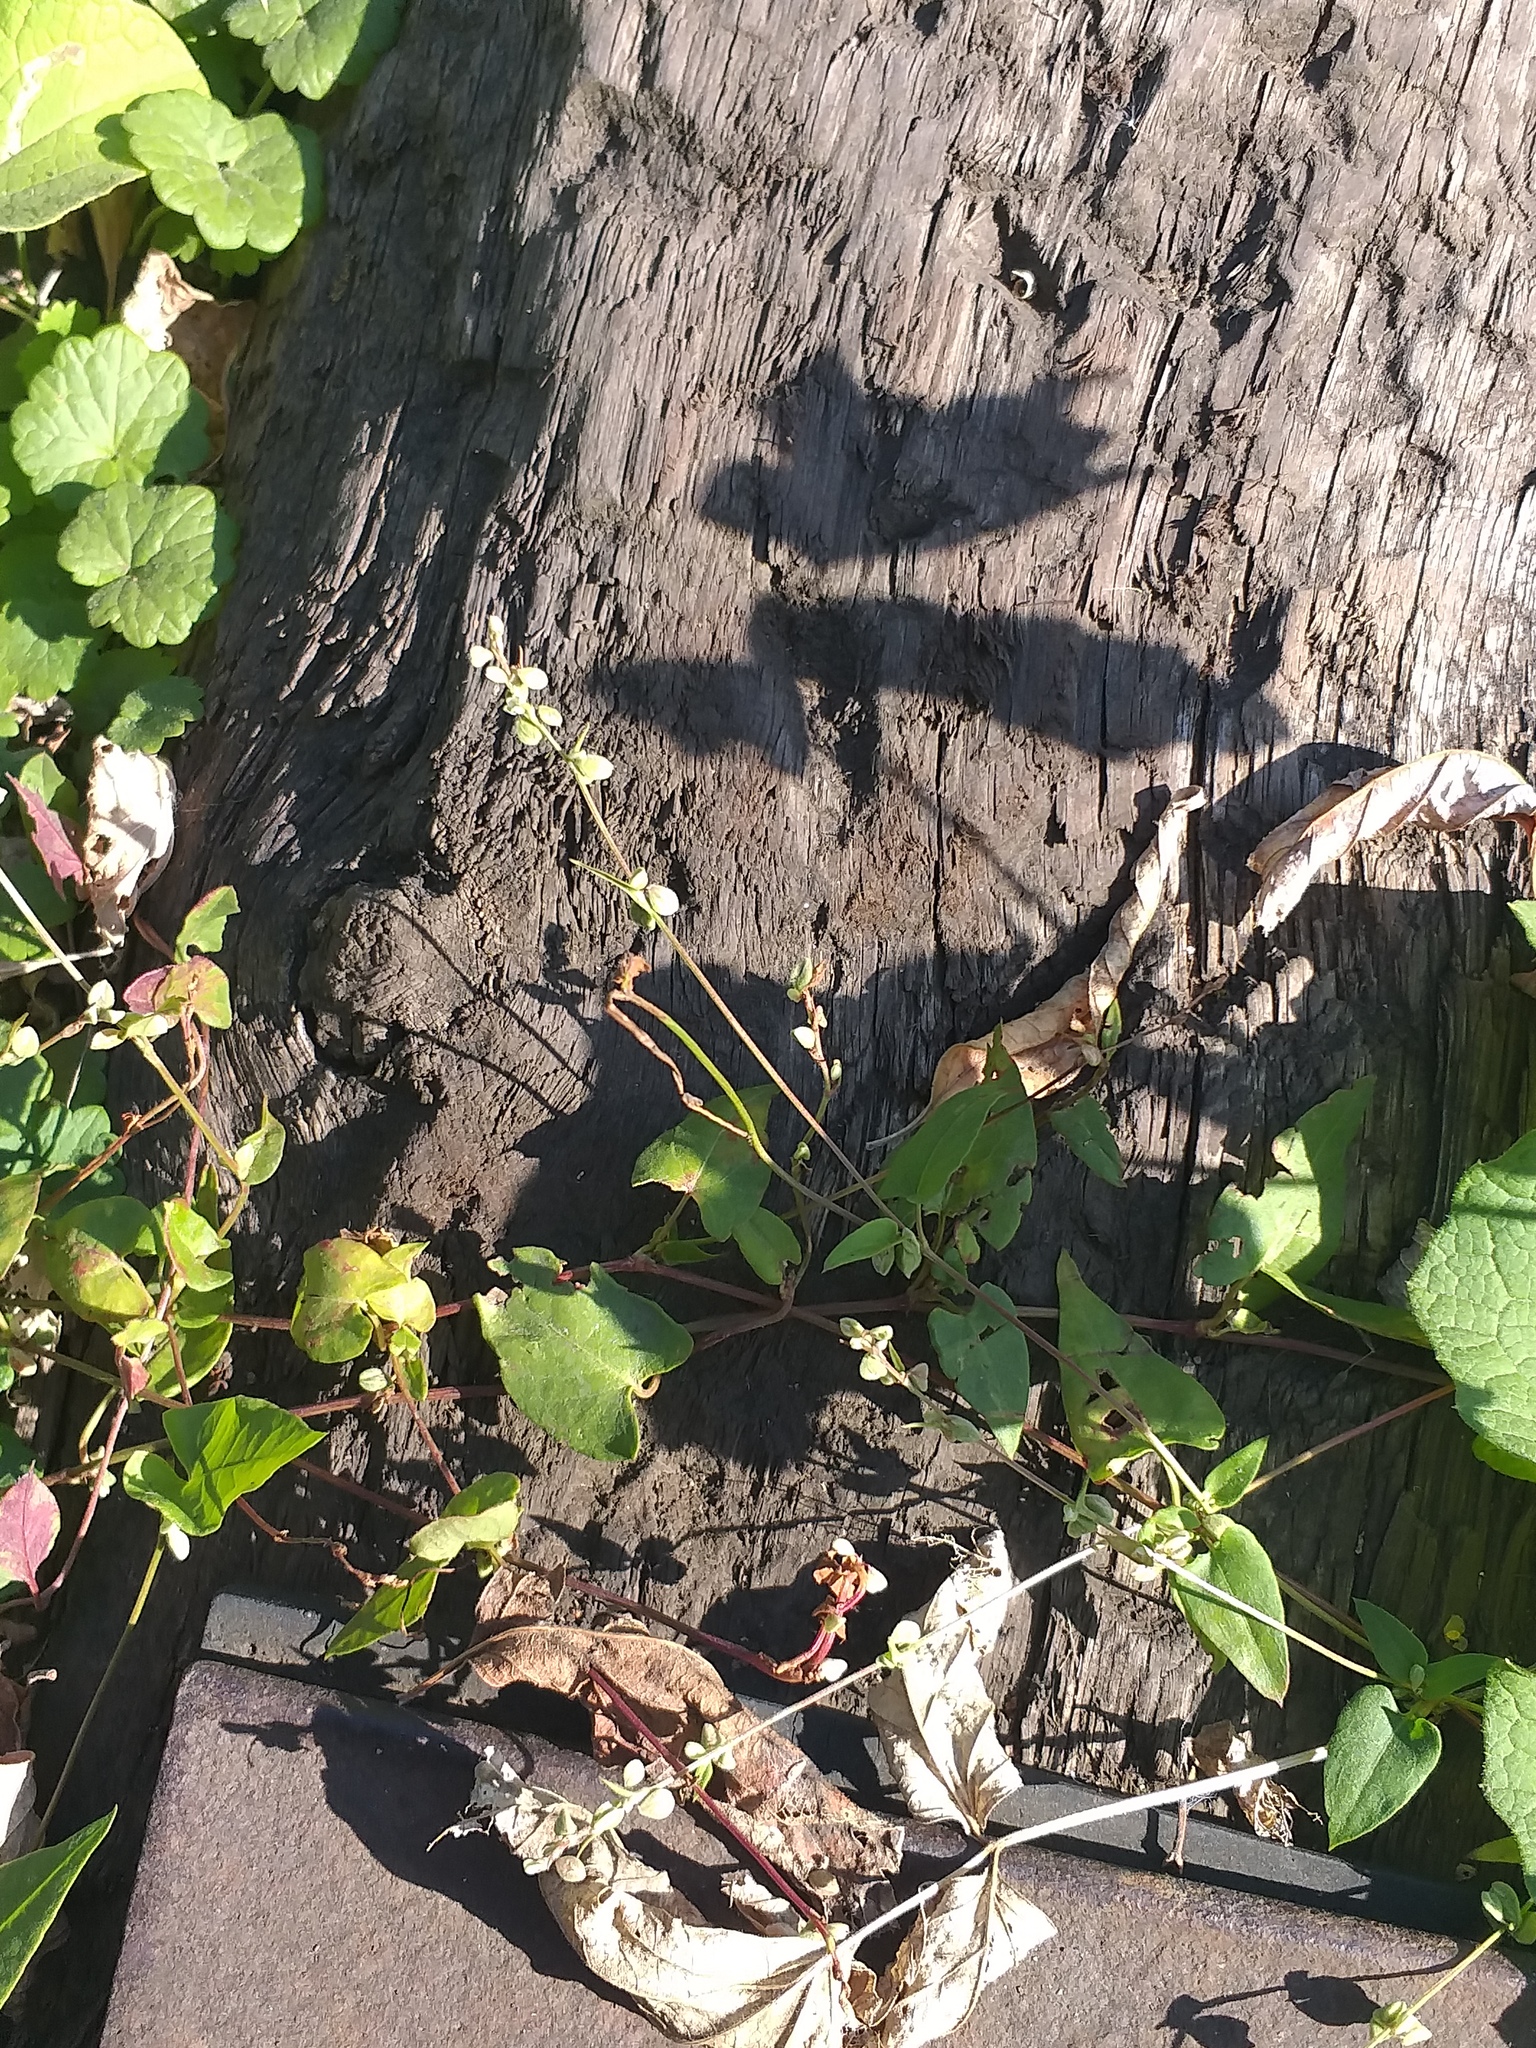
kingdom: Plantae
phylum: Tracheophyta
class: Magnoliopsida
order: Caryophyllales
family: Polygonaceae
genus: Fallopia
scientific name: Fallopia convolvulus
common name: Black bindweed
